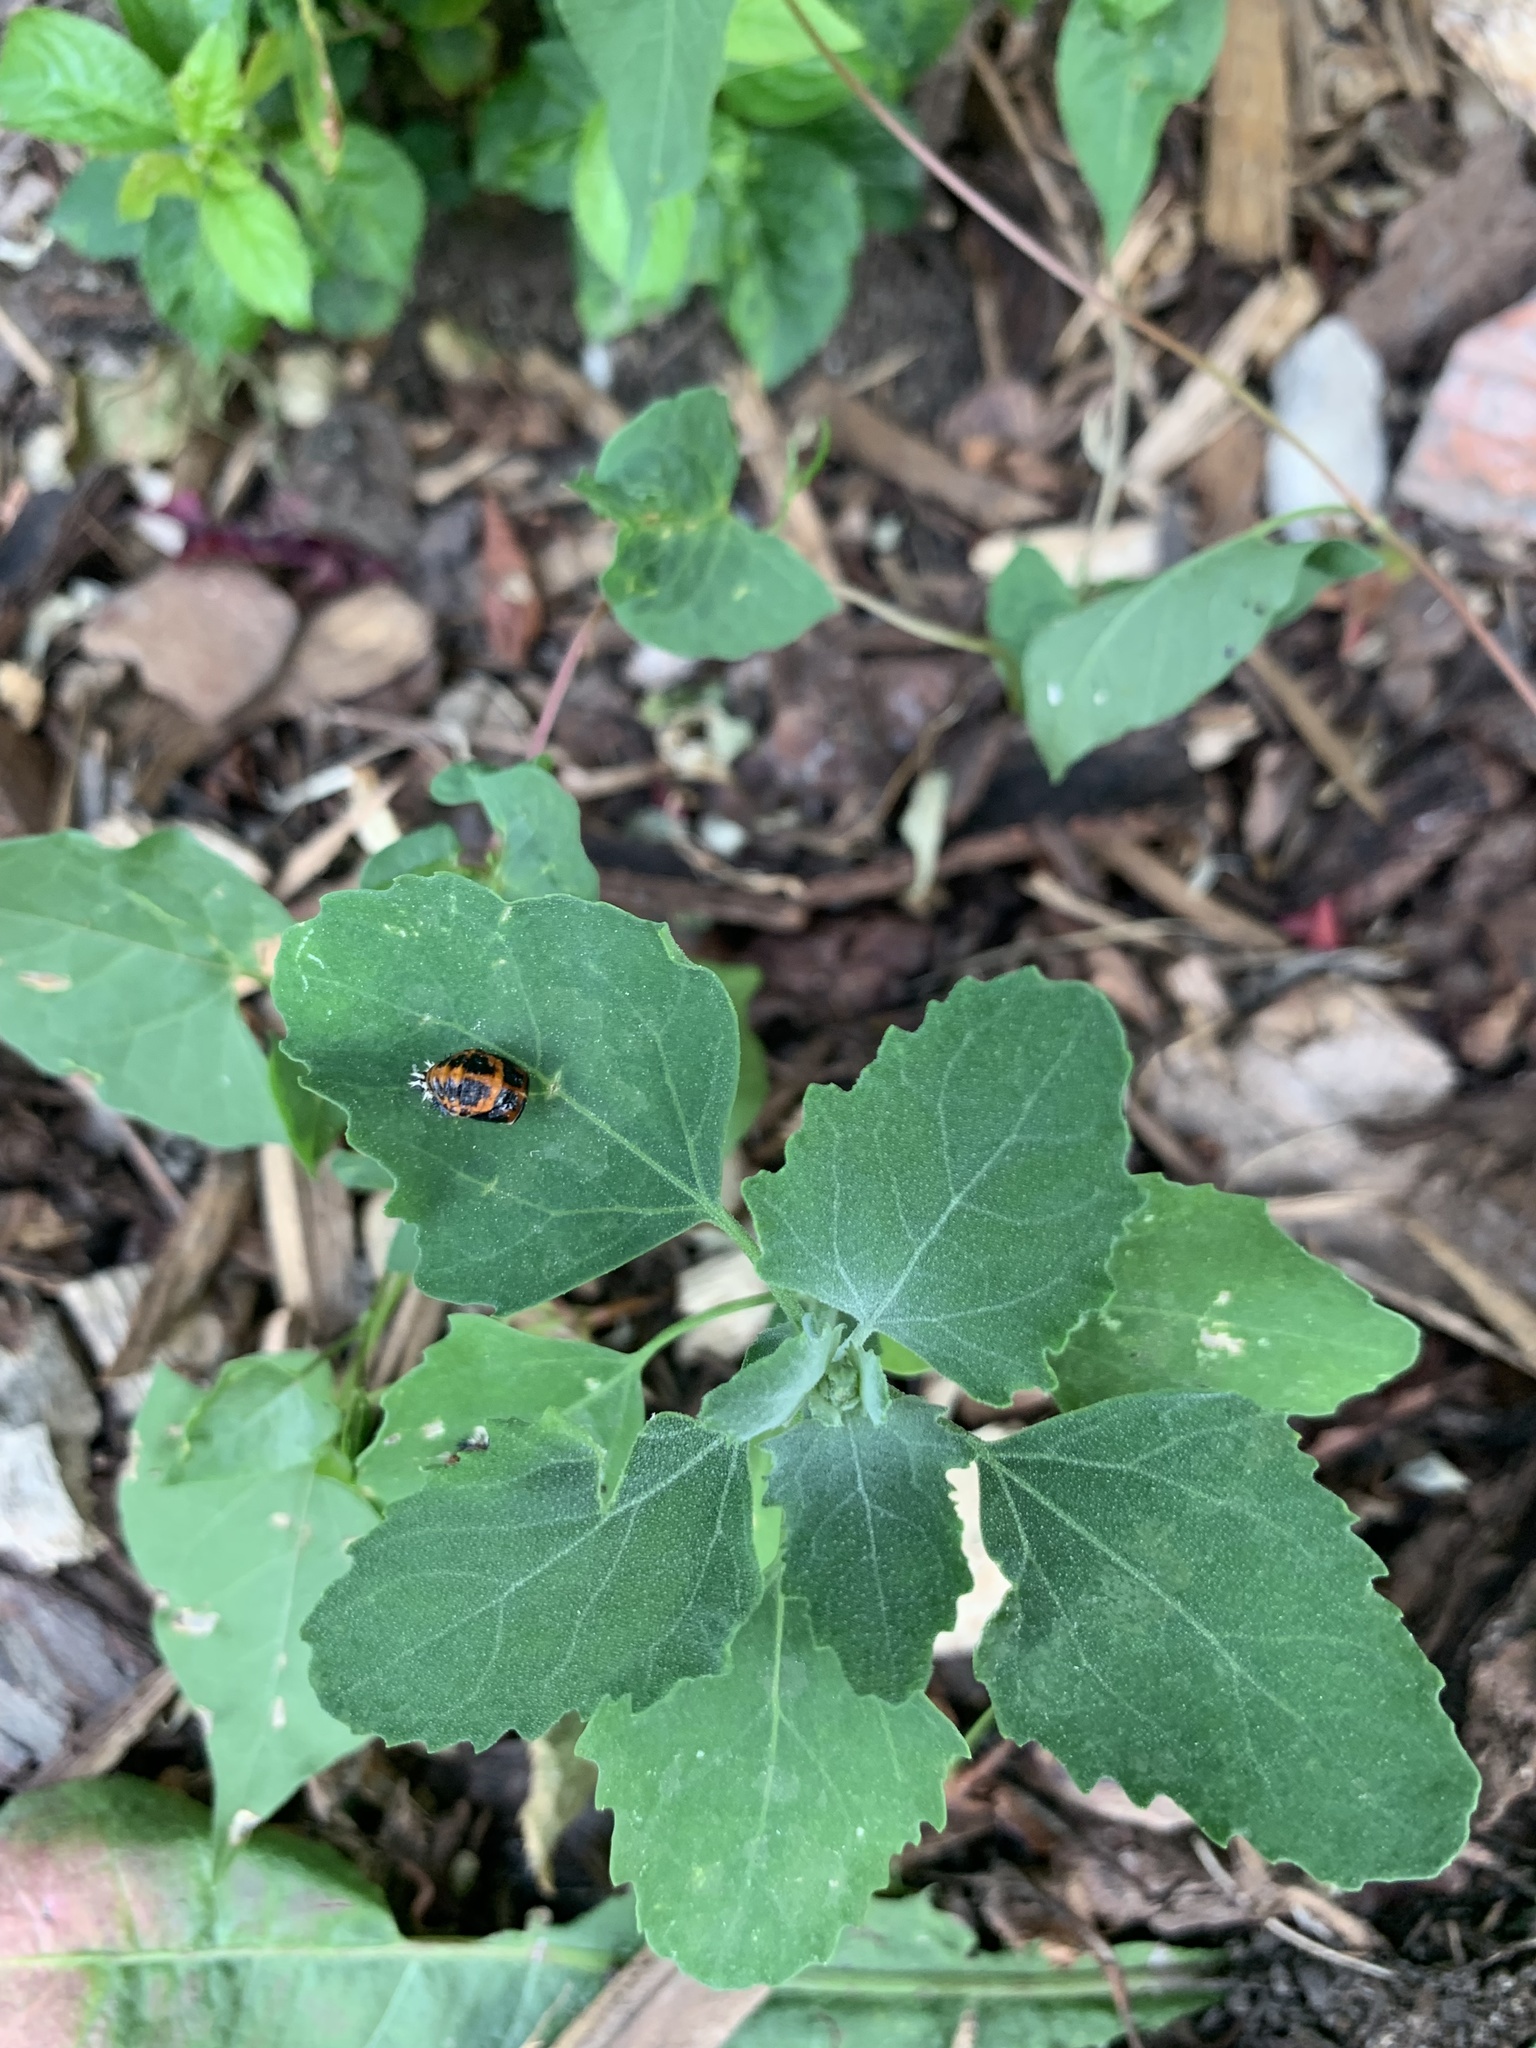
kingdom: Animalia
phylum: Arthropoda
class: Insecta
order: Coleoptera
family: Coccinellidae
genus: Harmonia
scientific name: Harmonia axyridis
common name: Harlequin ladybird
